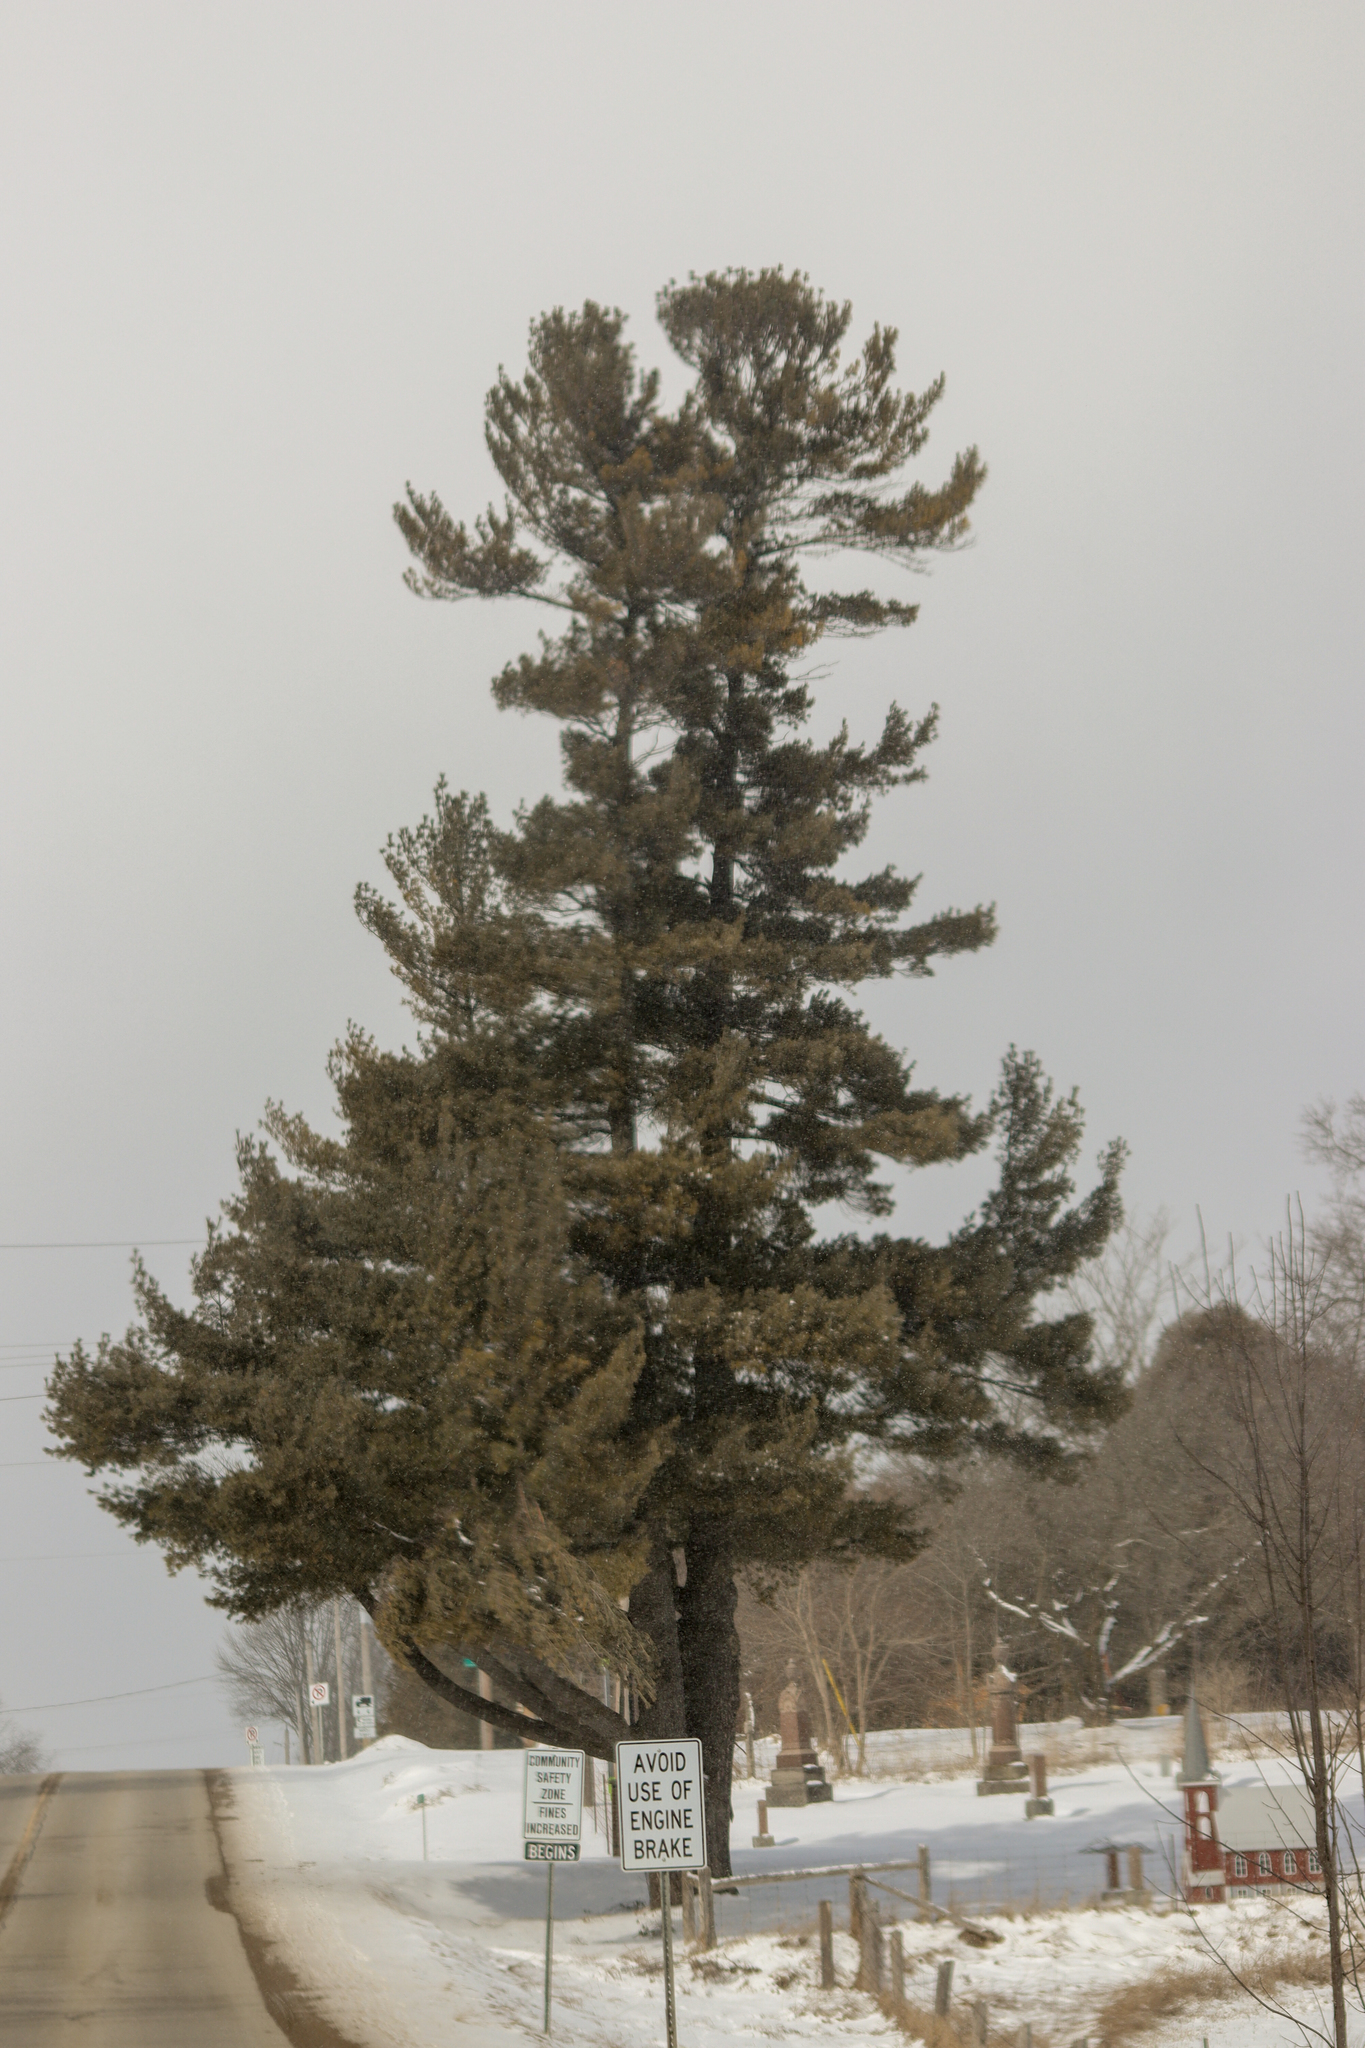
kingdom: Plantae
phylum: Tracheophyta
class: Pinopsida
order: Pinales
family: Pinaceae
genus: Pinus
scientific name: Pinus strobus
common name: Weymouth pine
